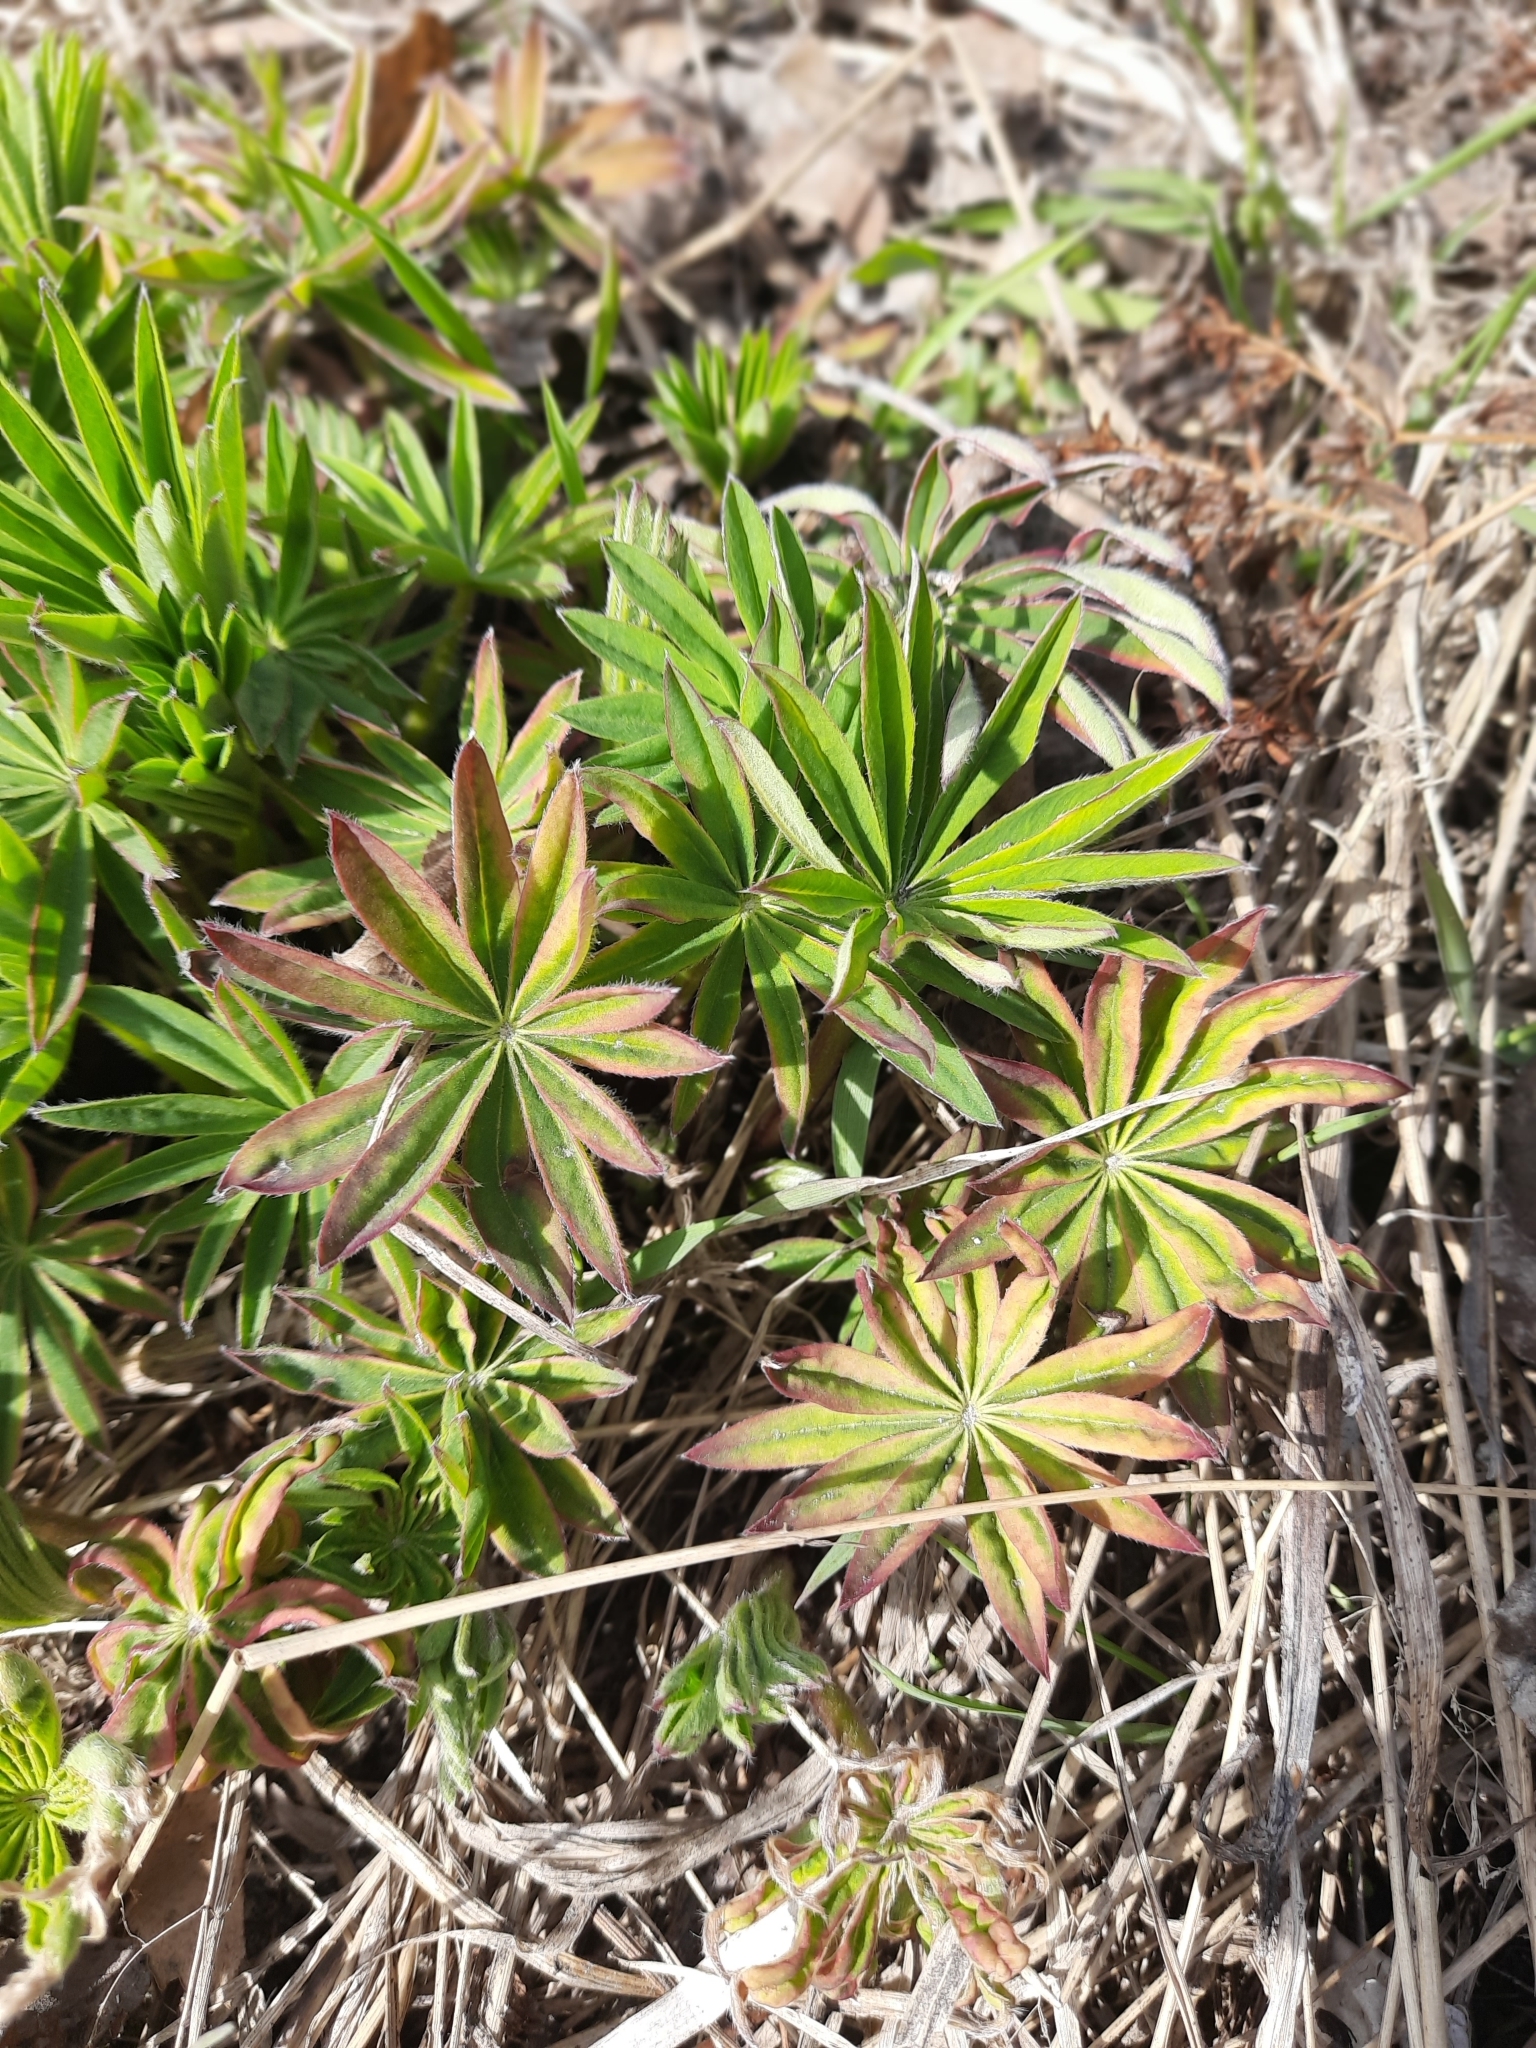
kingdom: Plantae
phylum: Tracheophyta
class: Magnoliopsida
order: Fabales
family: Fabaceae
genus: Lupinus
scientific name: Lupinus polyphyllus
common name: Garden lupin
